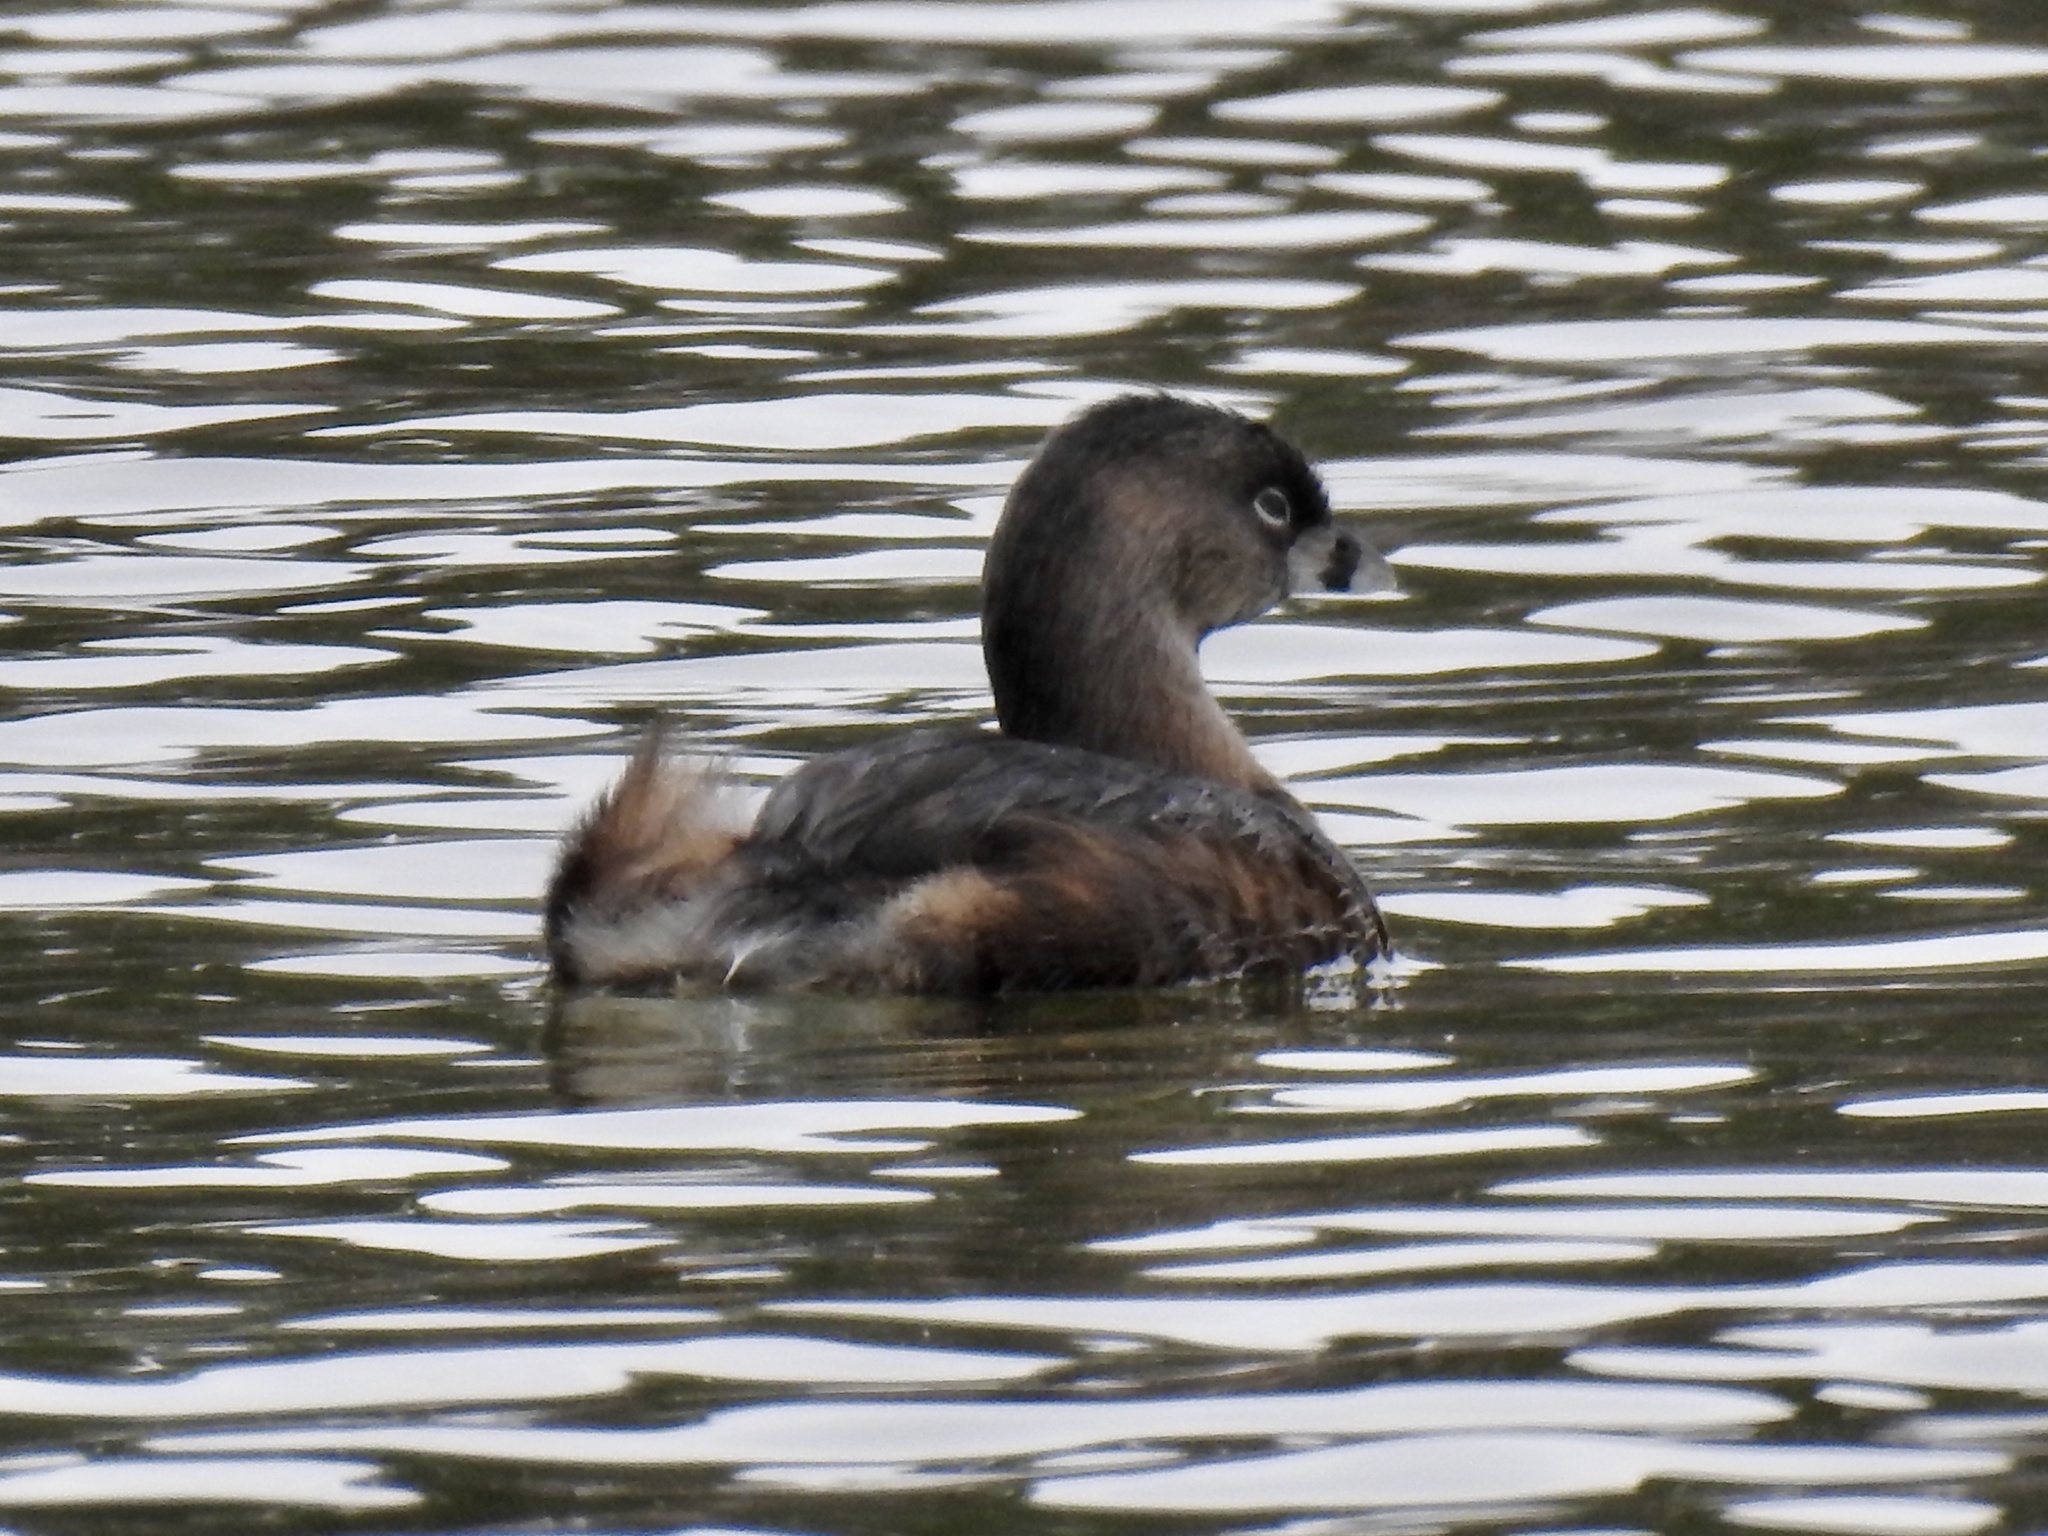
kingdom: Animalia
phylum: Chordata
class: Aves
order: Podicipediformes
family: Podicipedidae
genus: Podilymbus
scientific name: Podilymbus podiceps
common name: Pied-billed grebe
